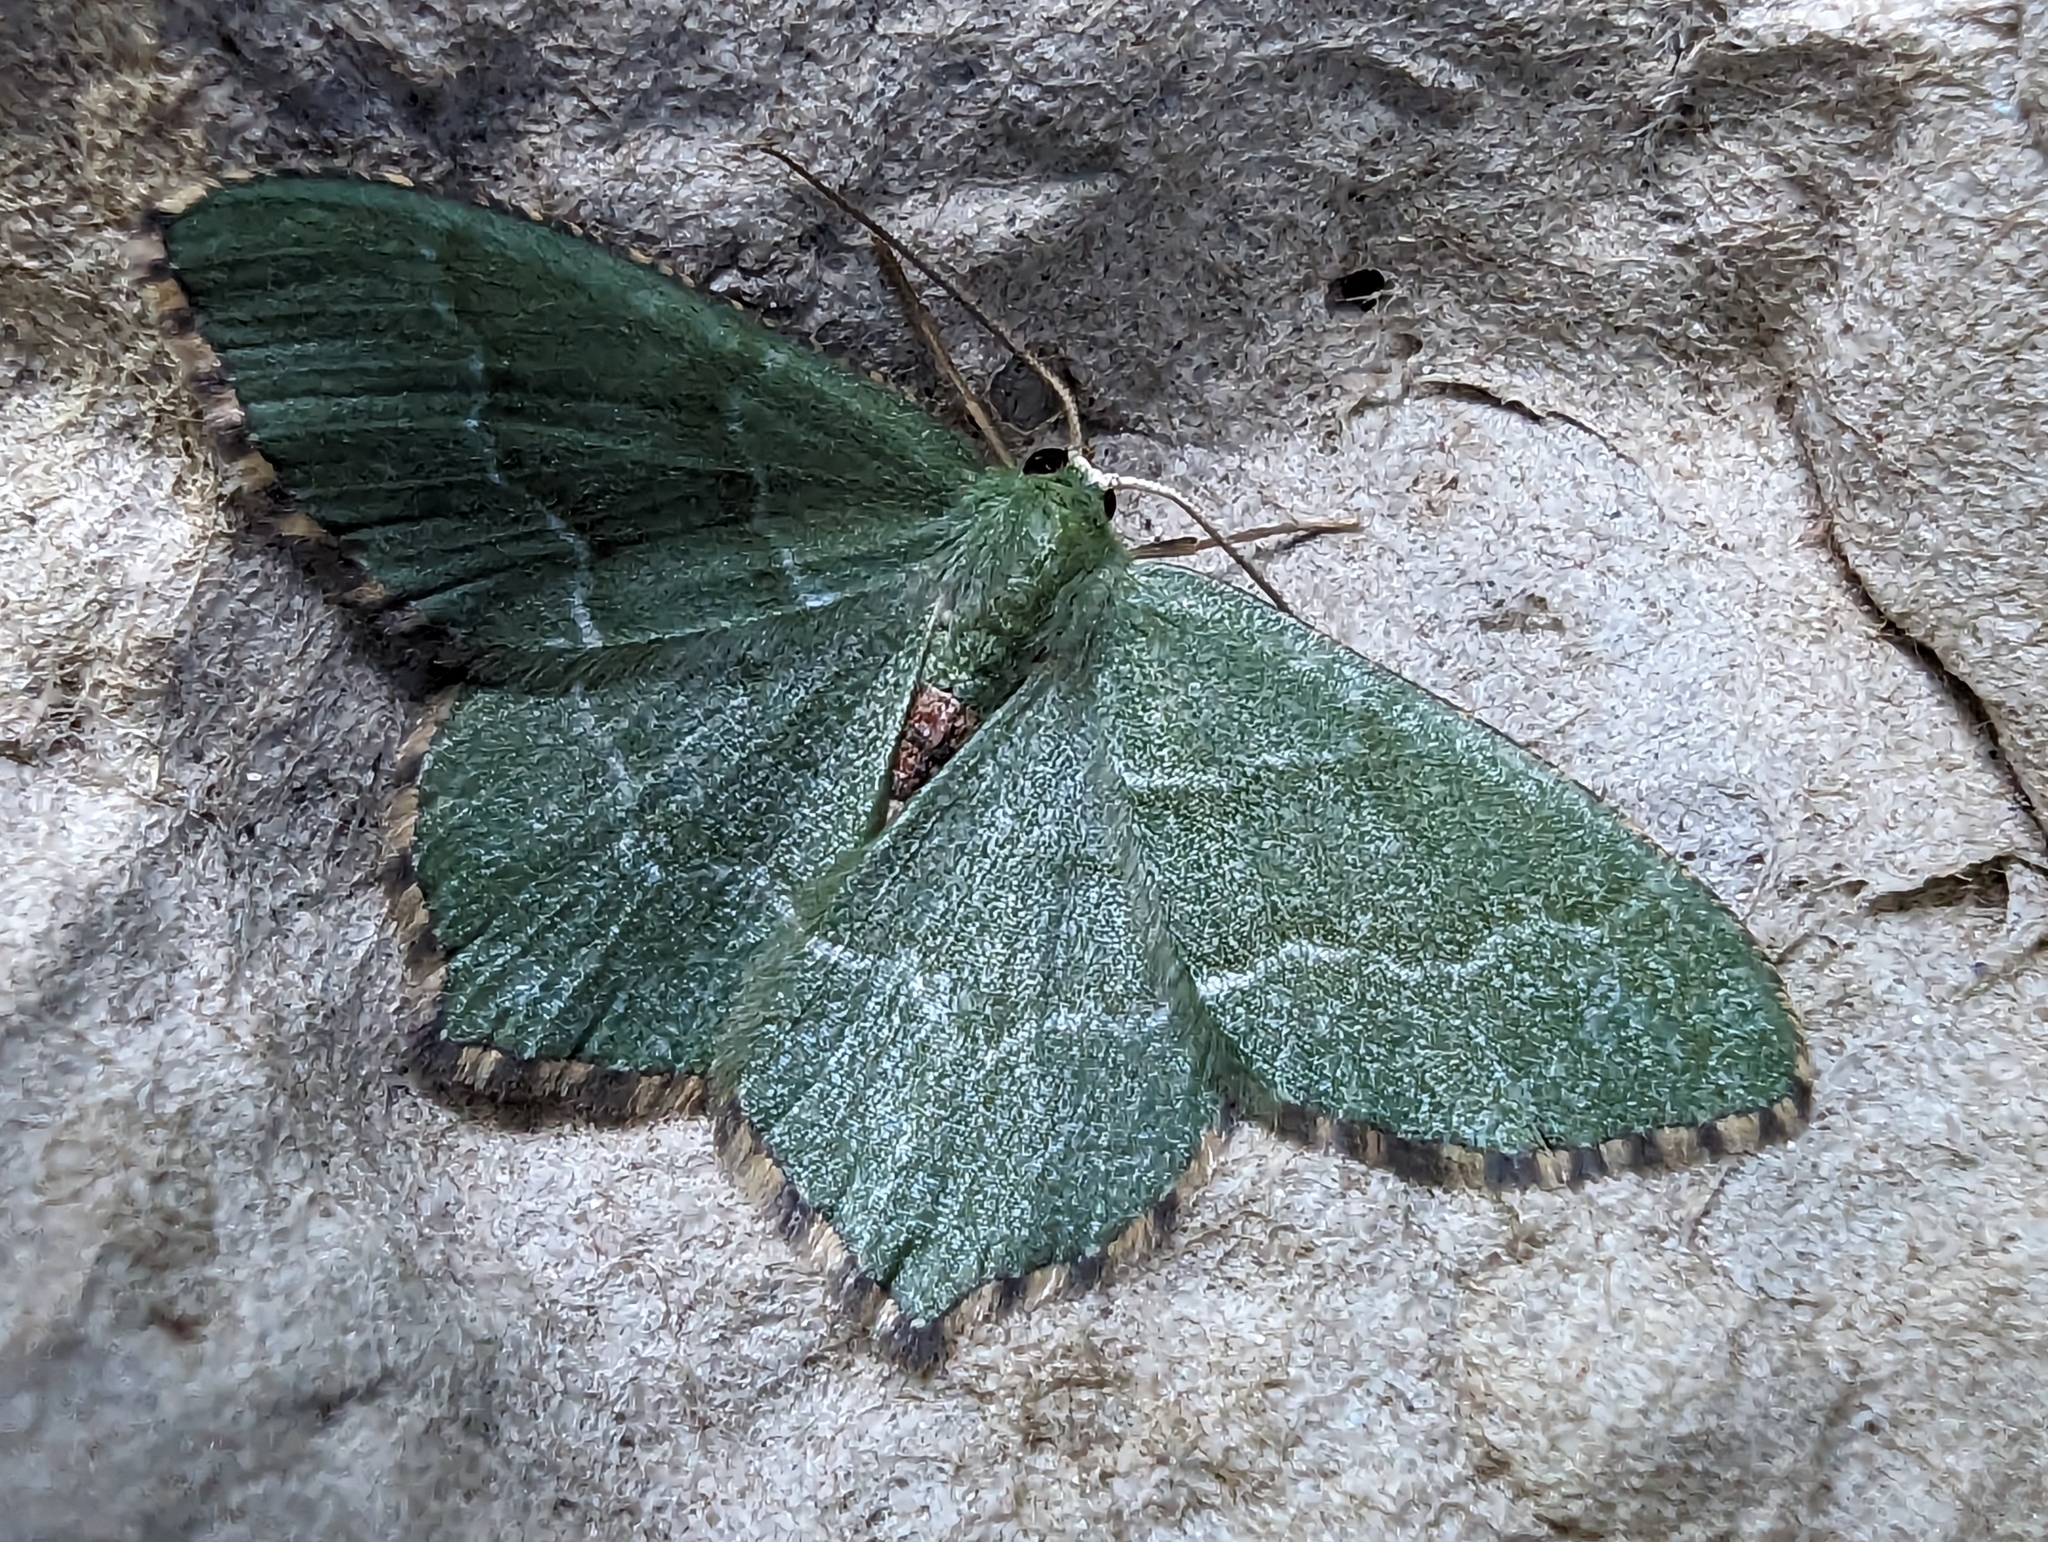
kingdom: Animalia
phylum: Arthropoda
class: Insecta
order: Lepidoptera
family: Geometridae
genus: Hemithea
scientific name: Hemithea aestivaria
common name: Common emerald
